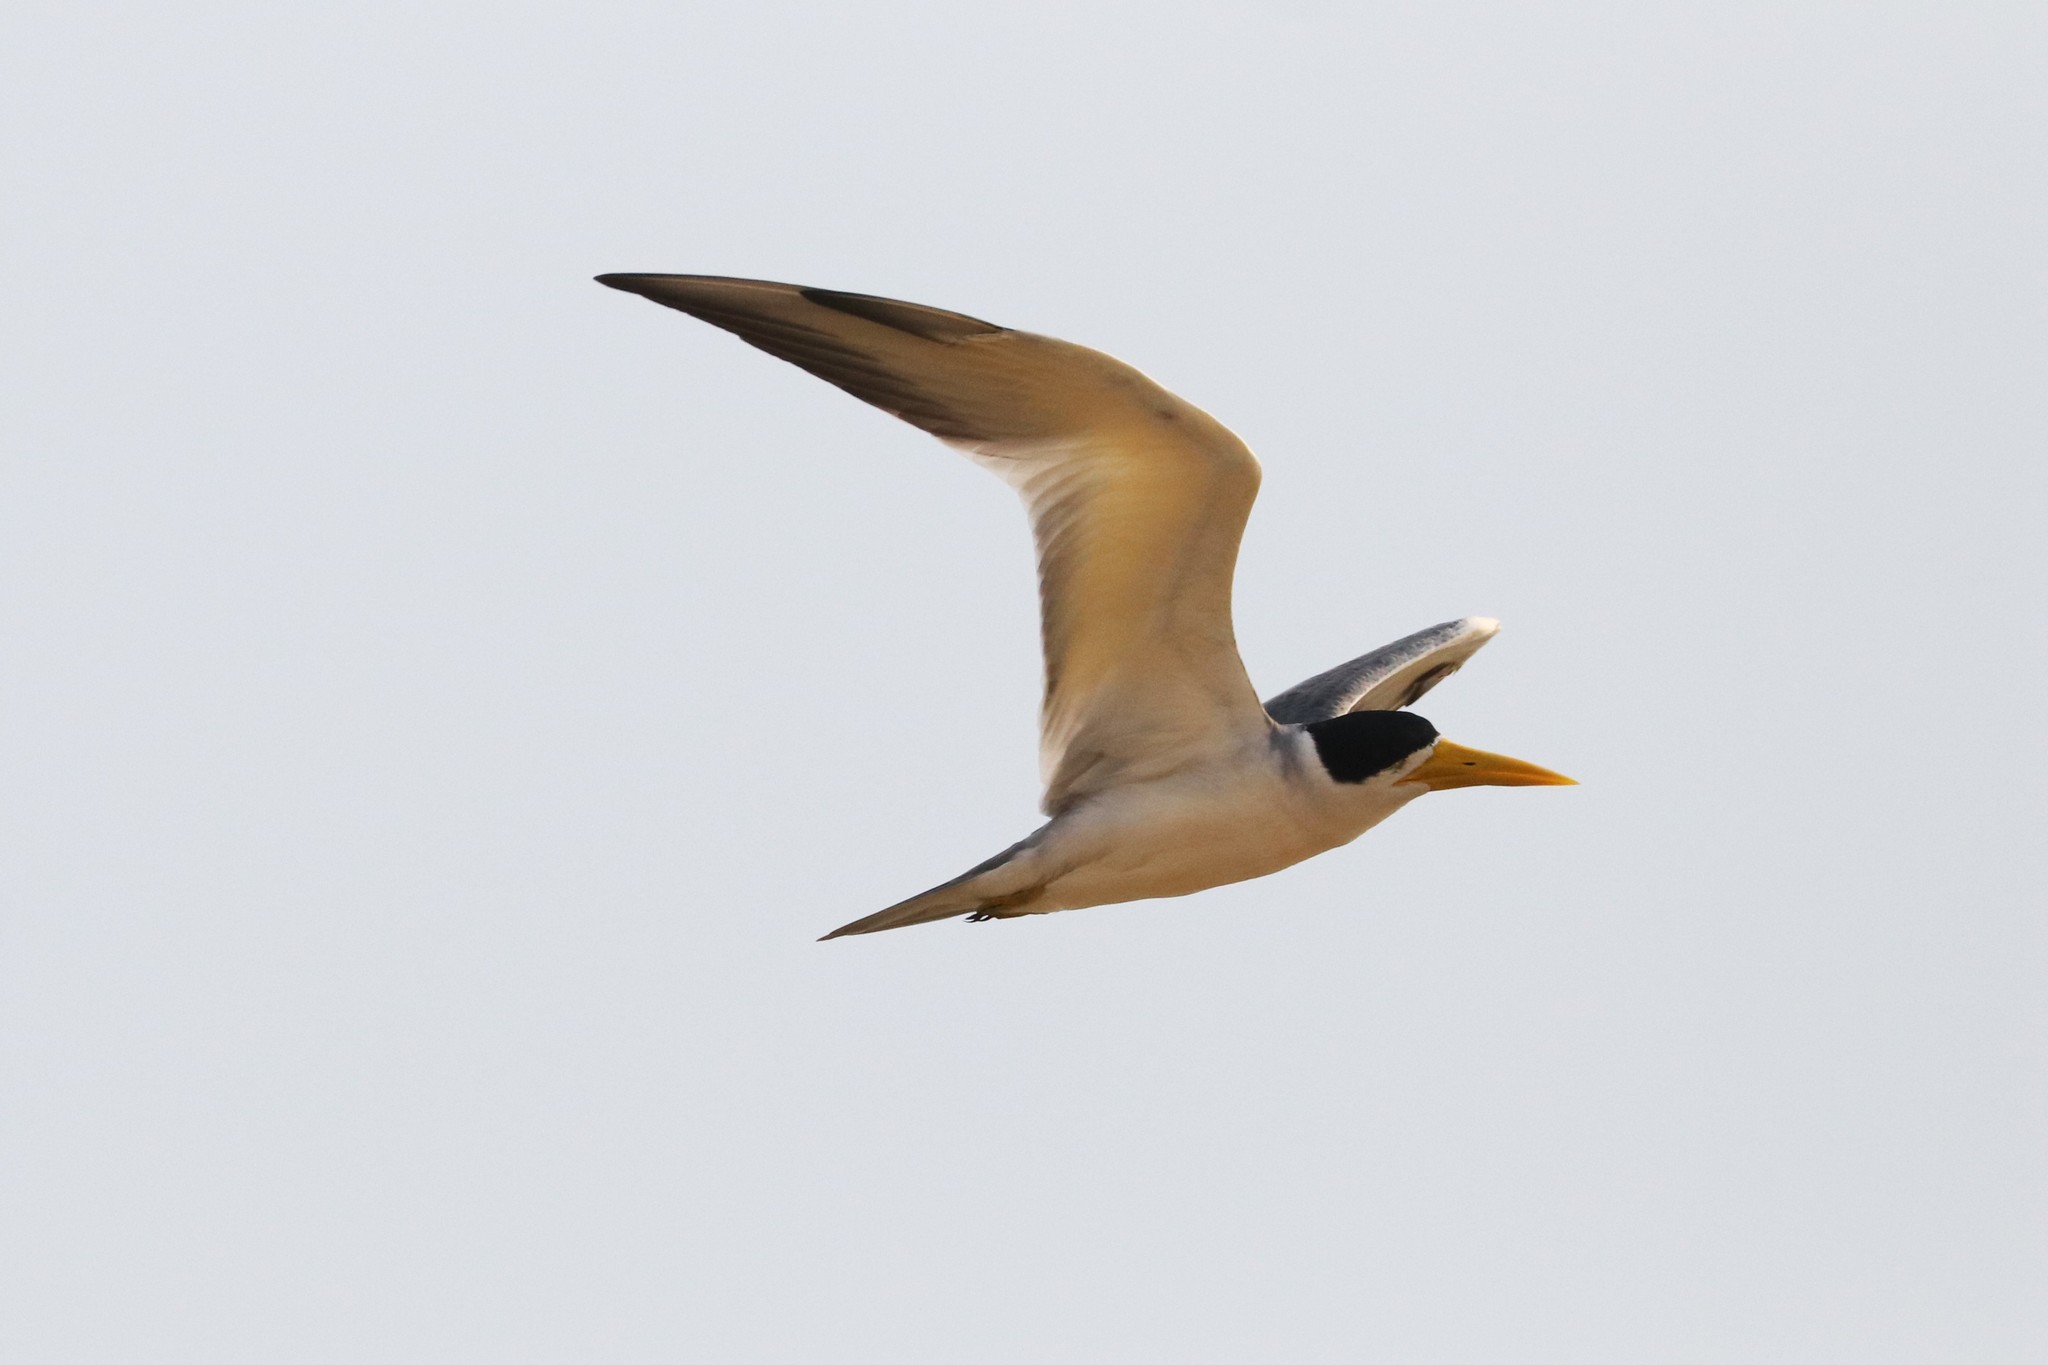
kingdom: Animalia
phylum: Chordata
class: Aves
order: Charadriiformes
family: Laridae
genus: Phaetusa
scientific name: Phaetusa simplex
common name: Large-billed tern
